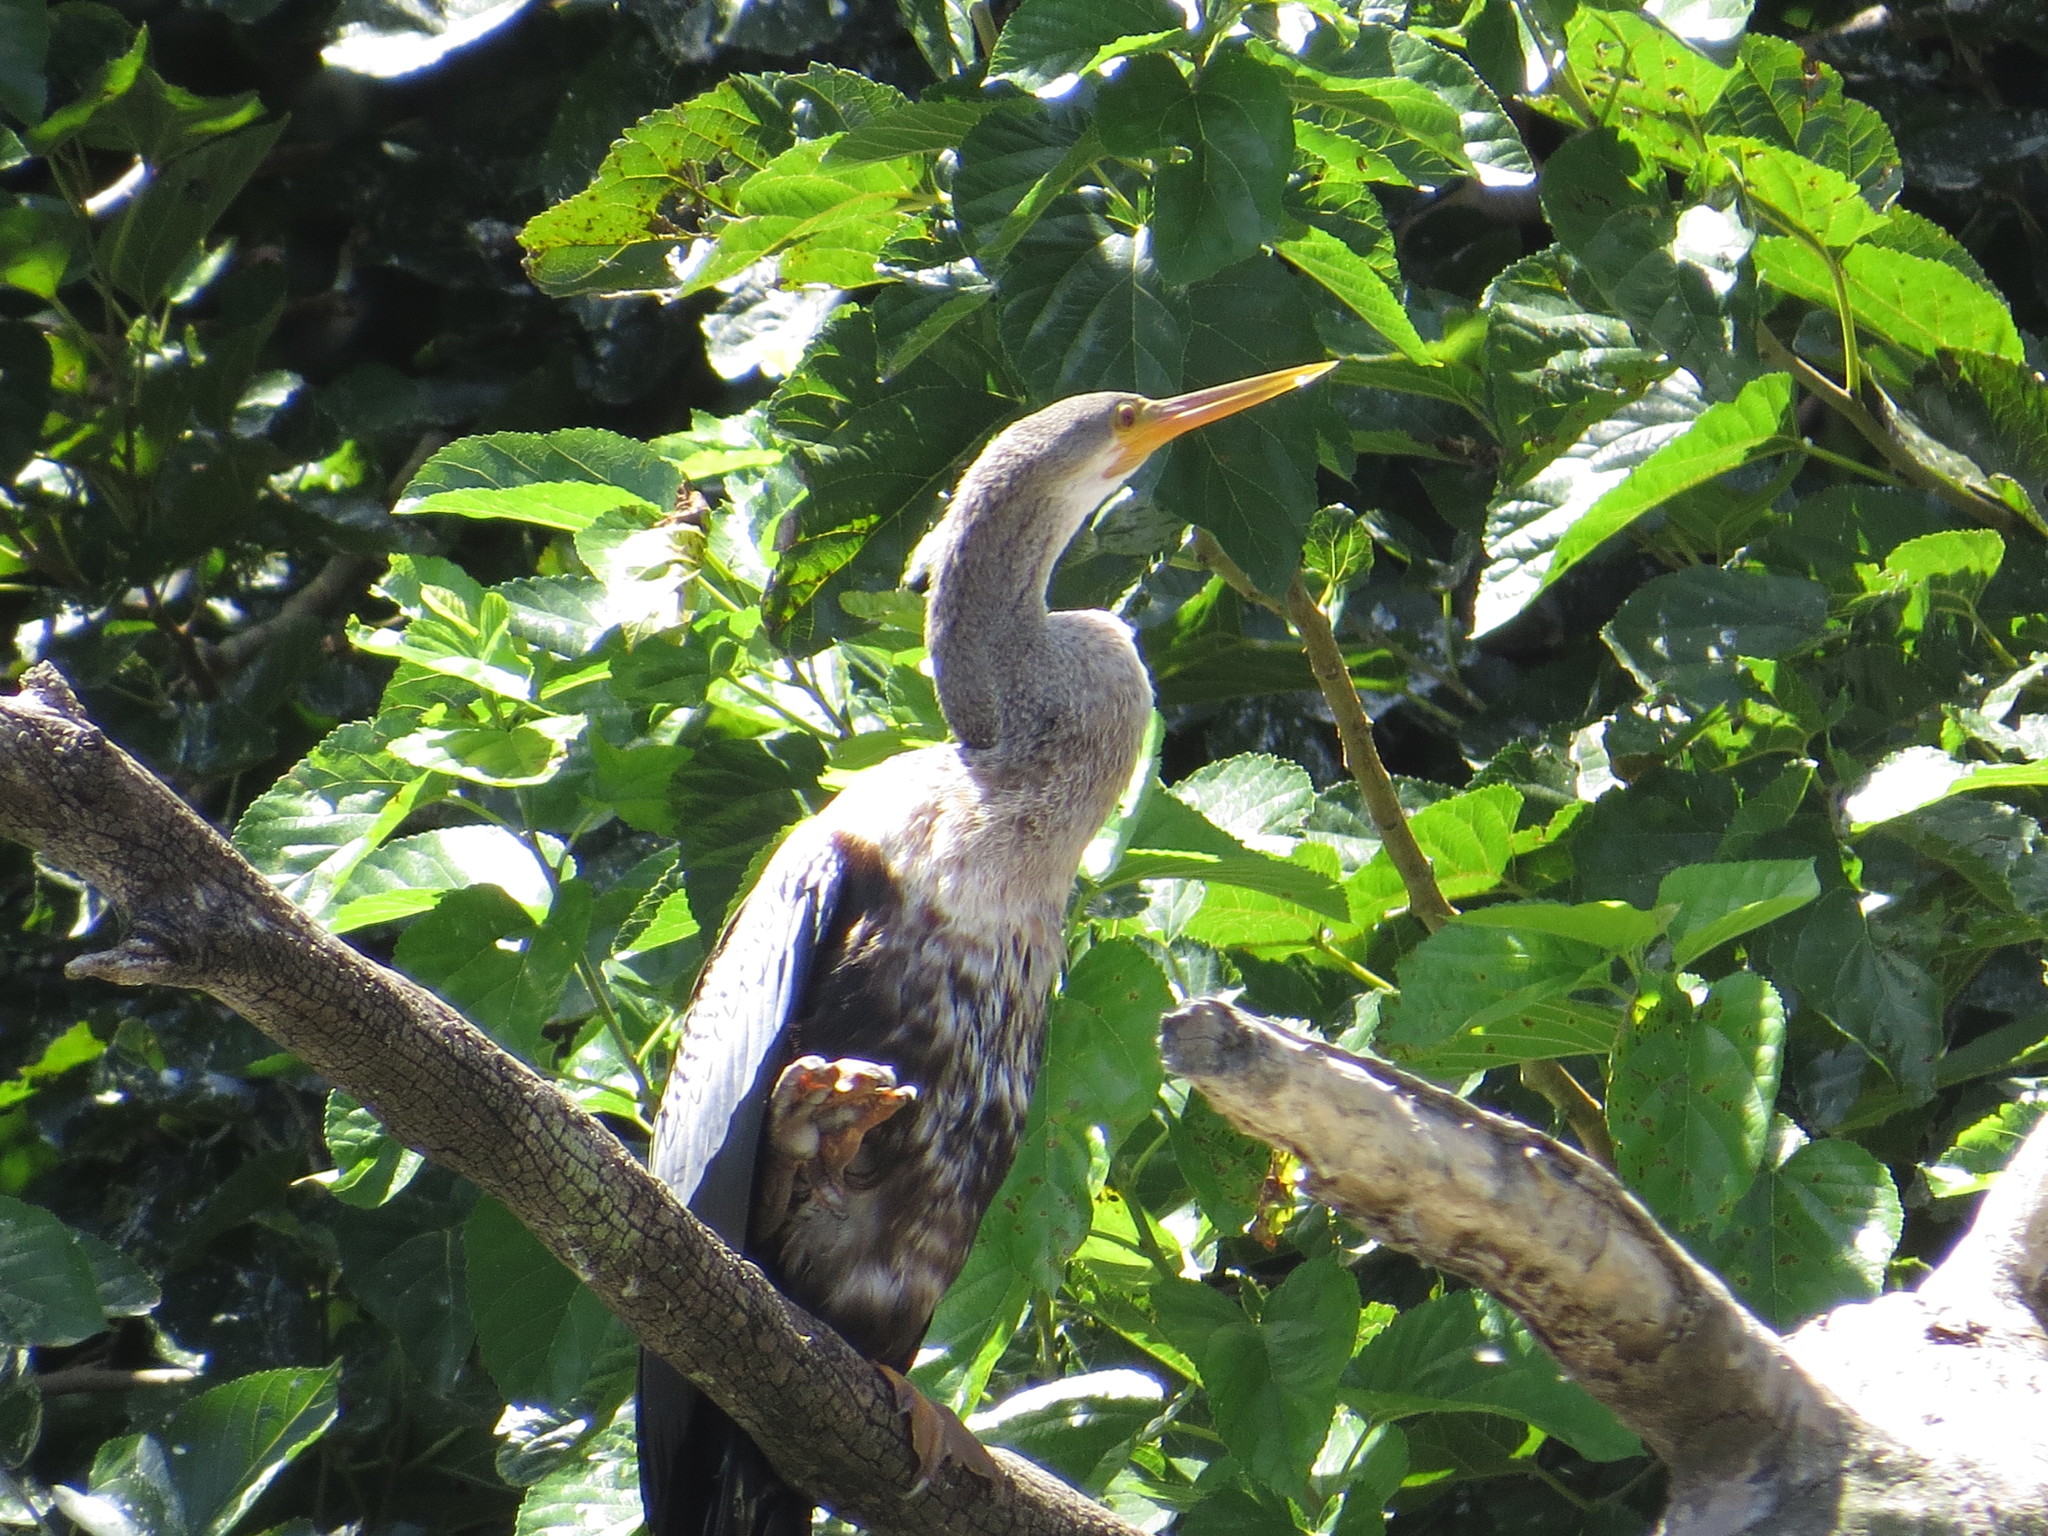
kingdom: Animalia
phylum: Chordata
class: Aves
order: Suliformes
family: Anhingidae
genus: Anhinga
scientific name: Anhinga anhinga
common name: Anhinga
